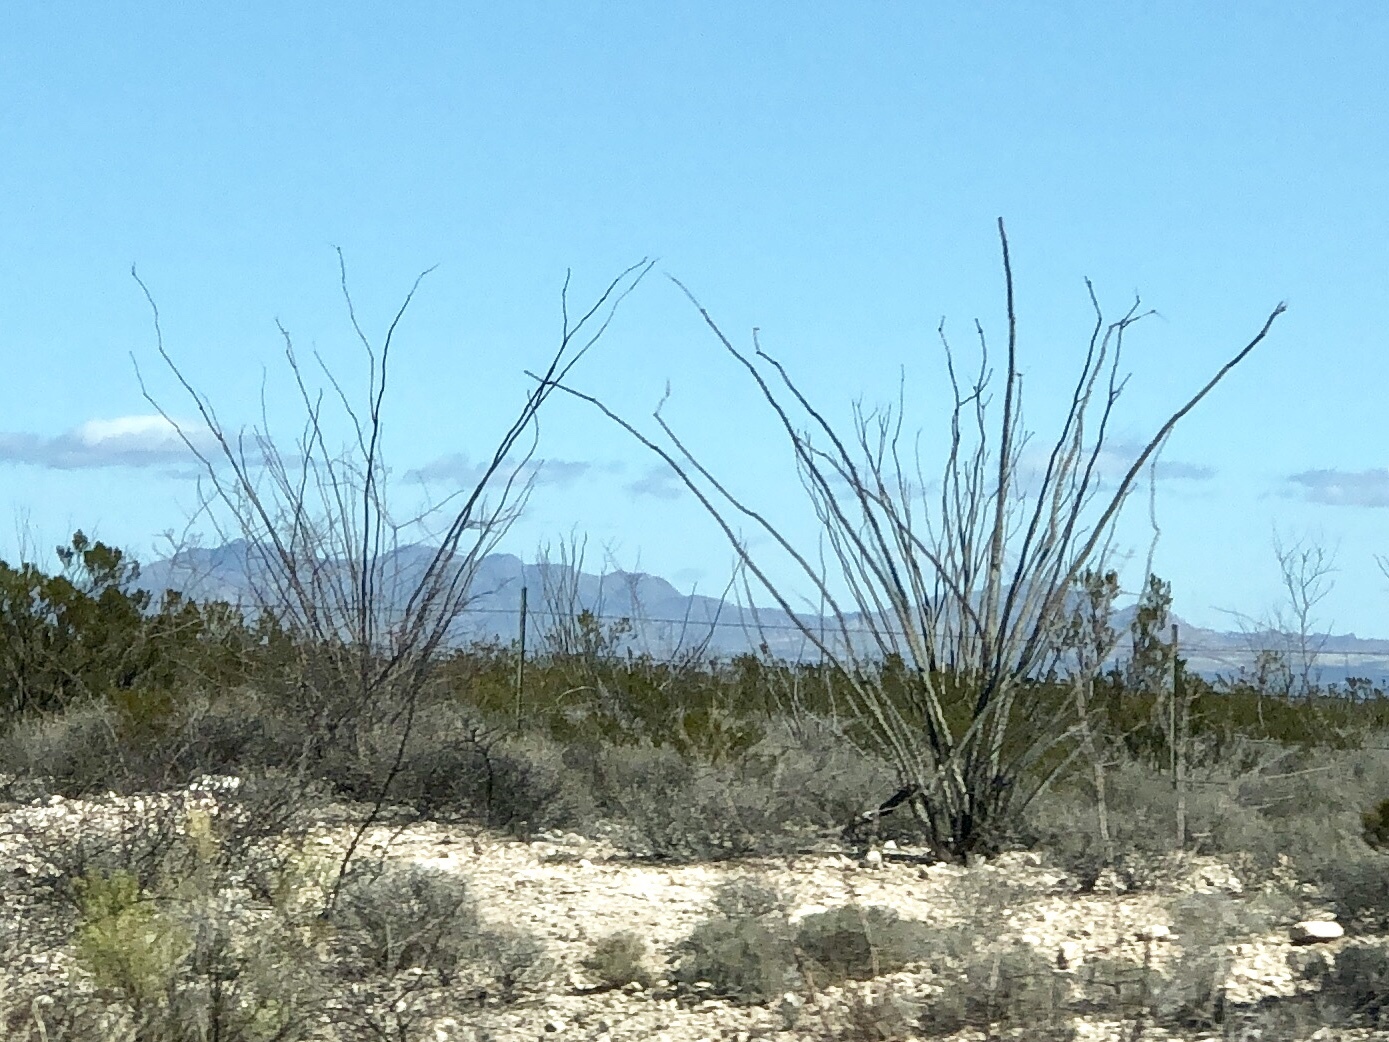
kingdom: Plantae
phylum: Tracheophyta
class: Magnoliopsida
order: Ericales
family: Fouquieriaceae
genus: Fouquieria
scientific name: Fouquieria splendens
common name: Vine-cactus
